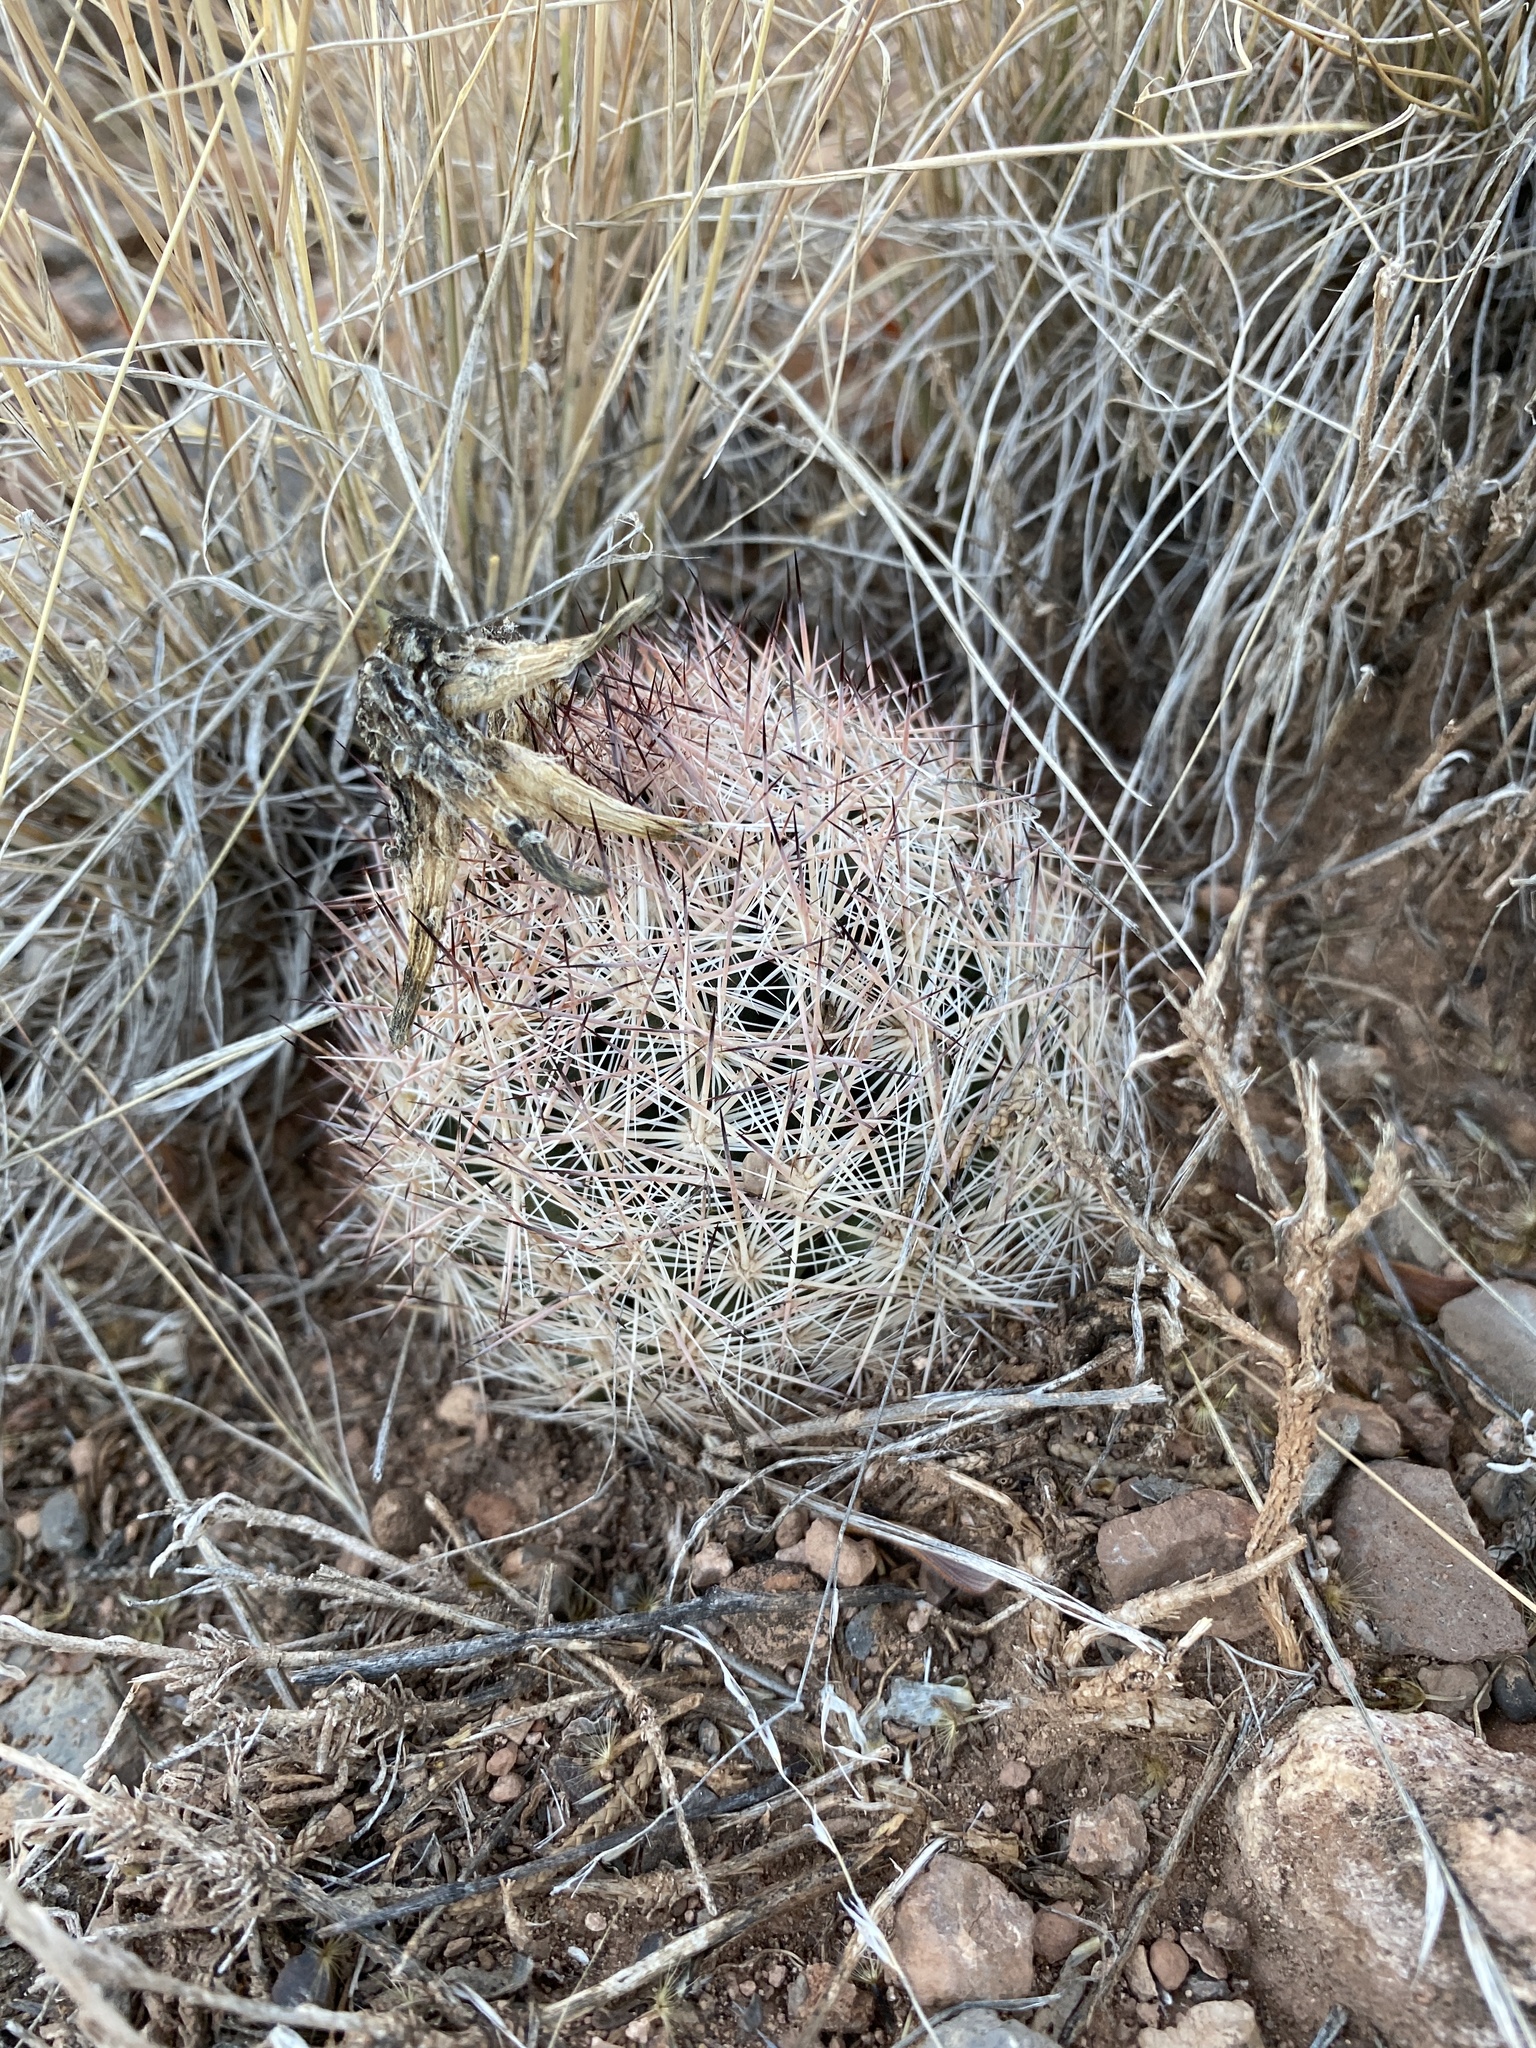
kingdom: Plantae
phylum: Tracheophyta
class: Magnoliopsida
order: Caryophyllales
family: Cactaceae
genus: Pelecyphora
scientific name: Pelecyphora vivipara
